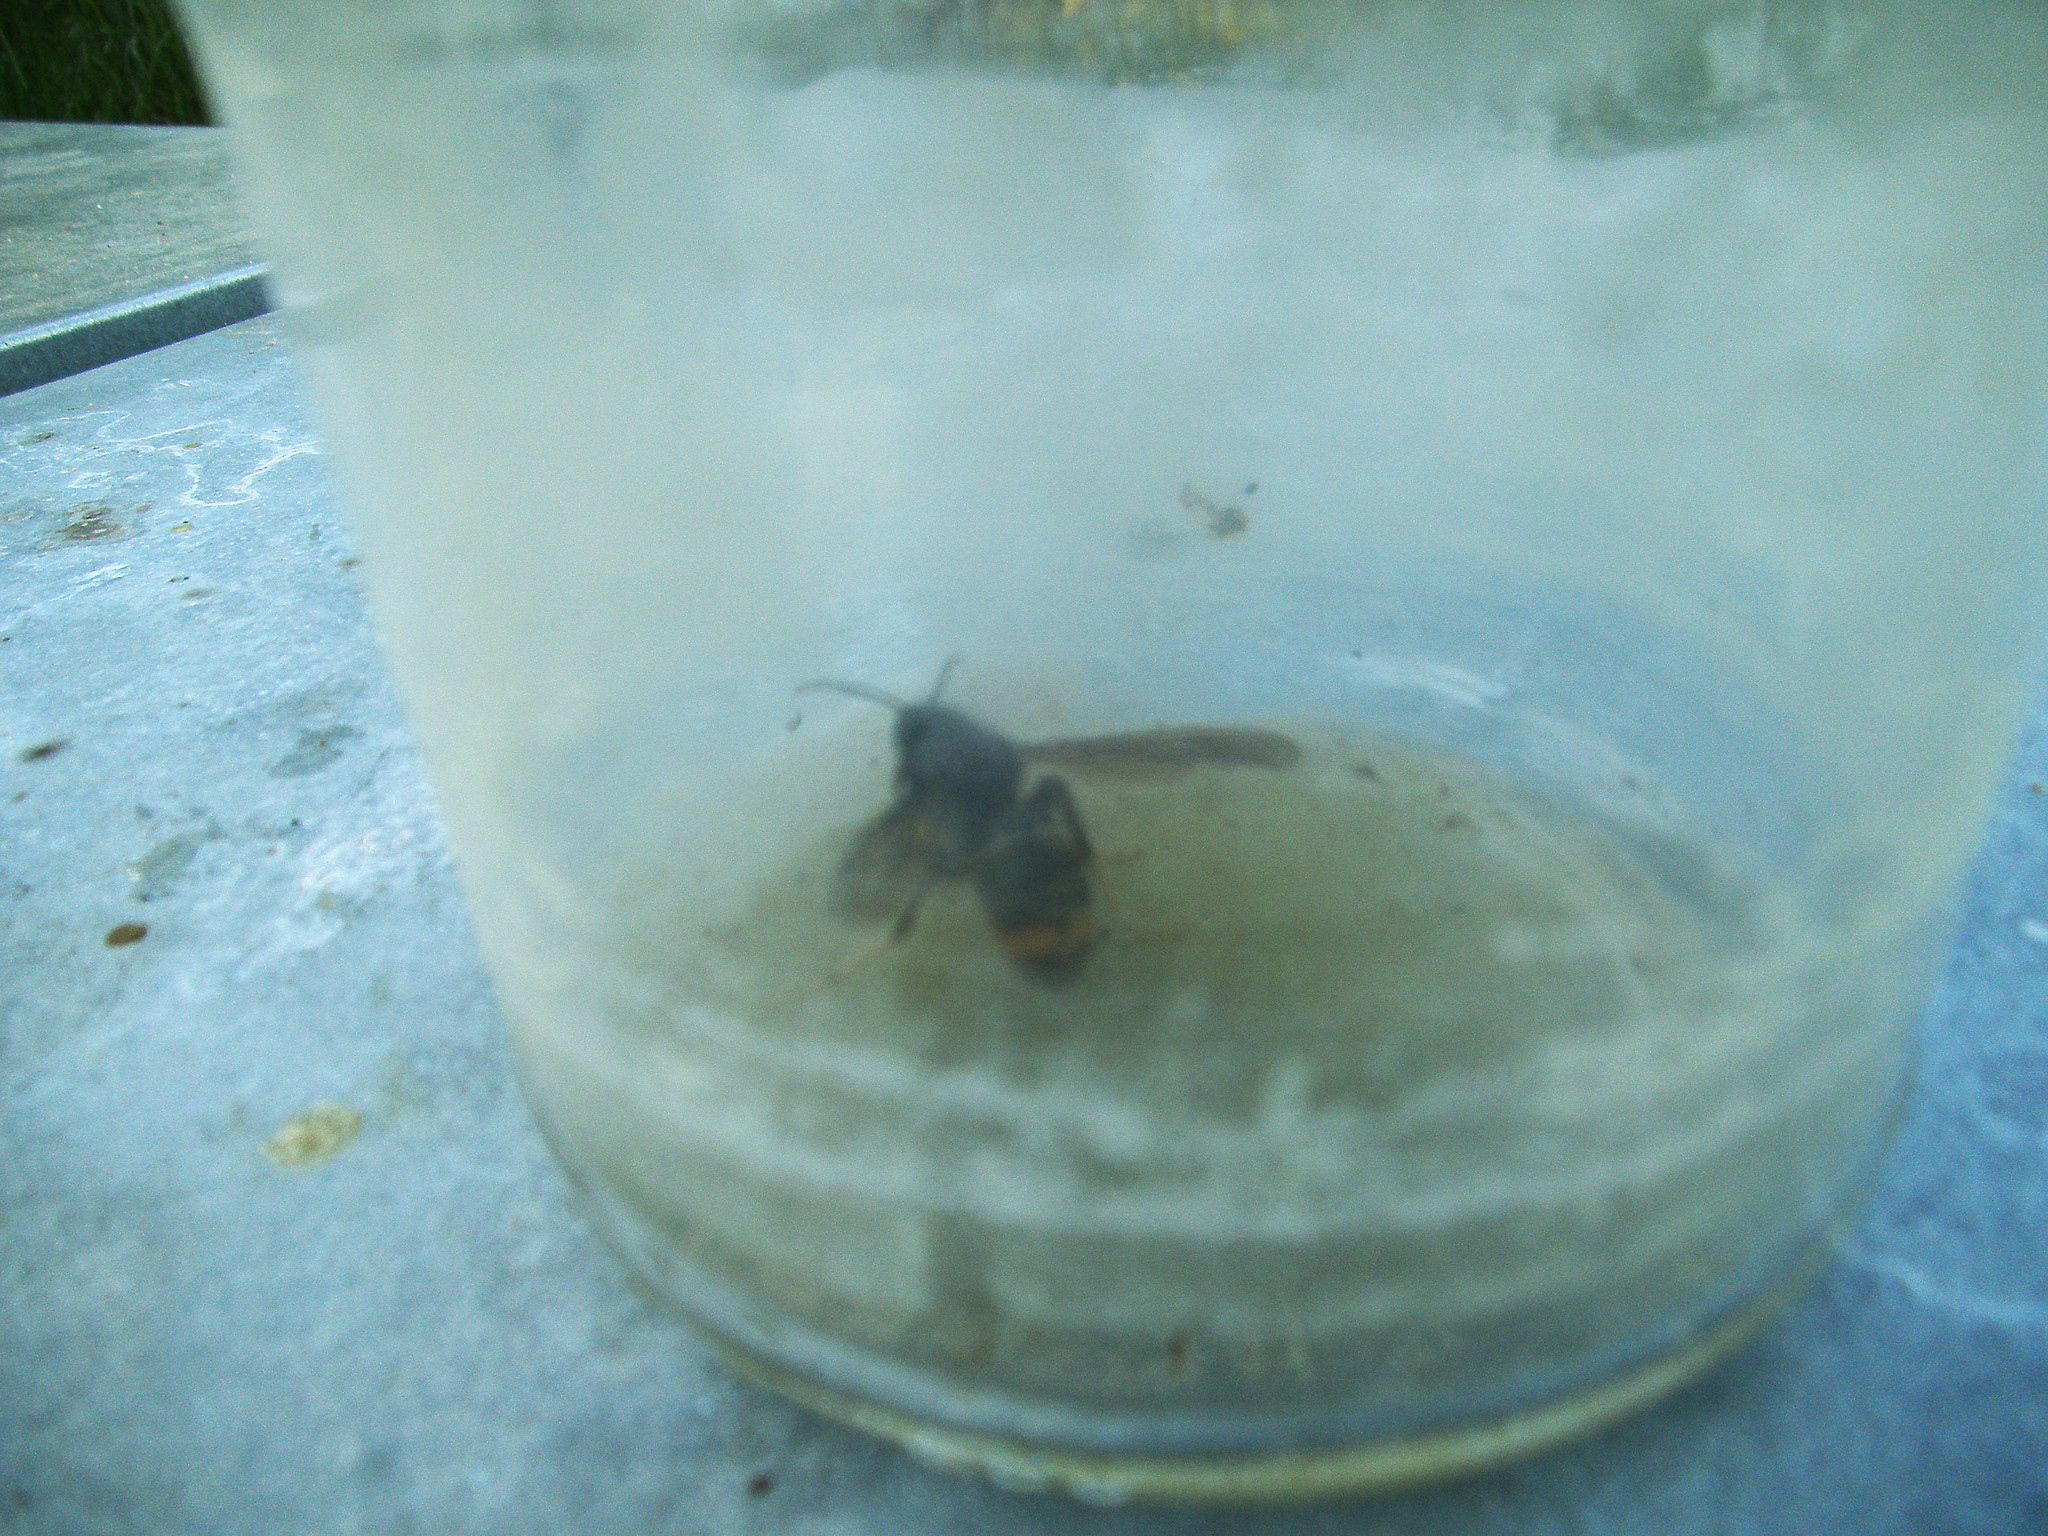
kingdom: Animalia
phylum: Arthropoda
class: Insecta
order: Hymenoptera
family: Vespidae
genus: Vespa
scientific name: Vespa velutina
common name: Asian hornet
